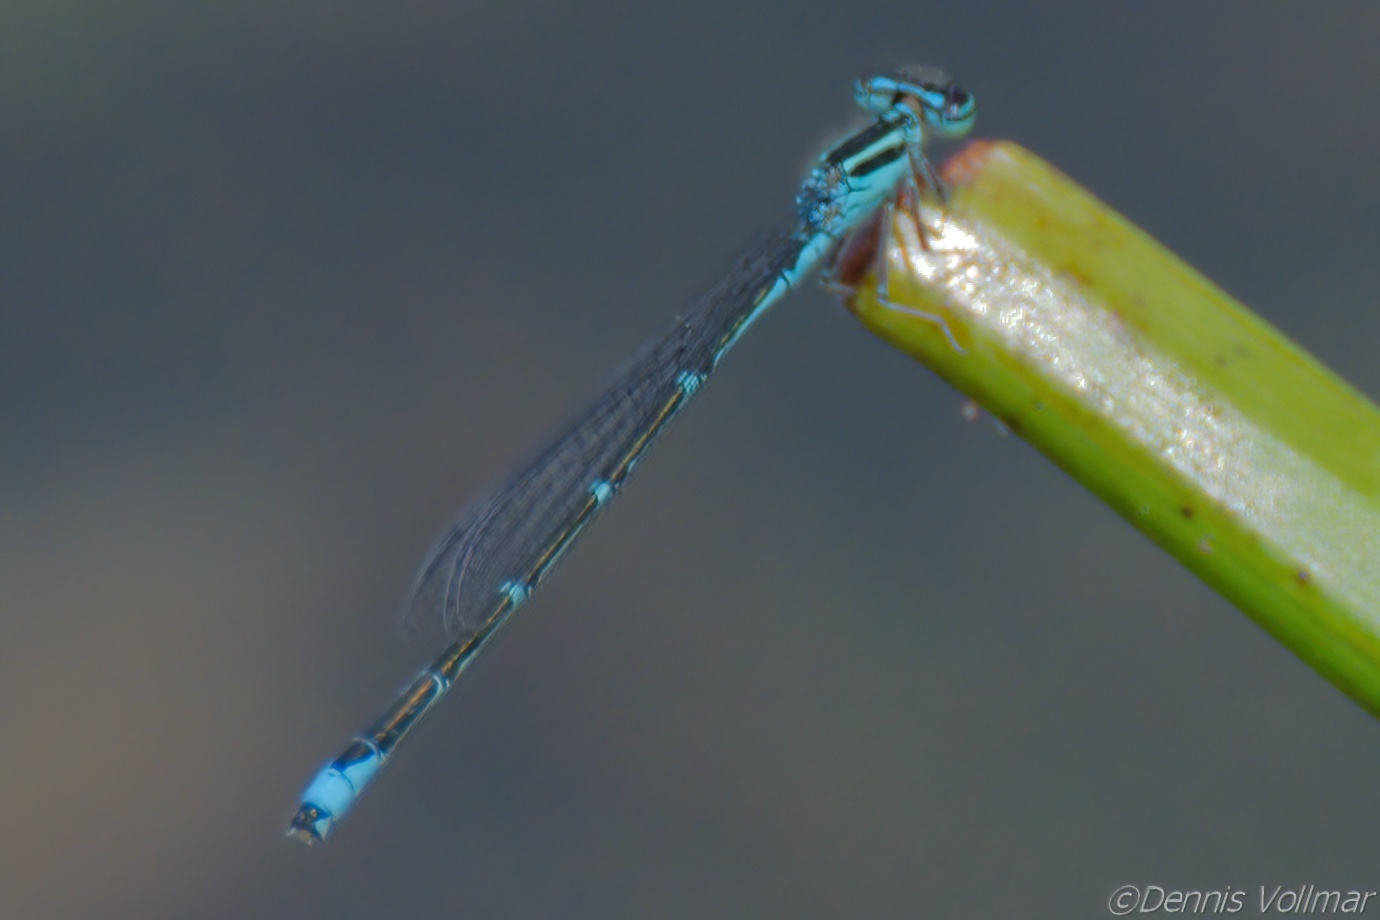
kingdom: Animalia
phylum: Arthropoda
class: Insecta
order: Odonata
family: Coenagrionidae
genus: Enallagma
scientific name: Enallagma exsulans
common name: Stream bluet
